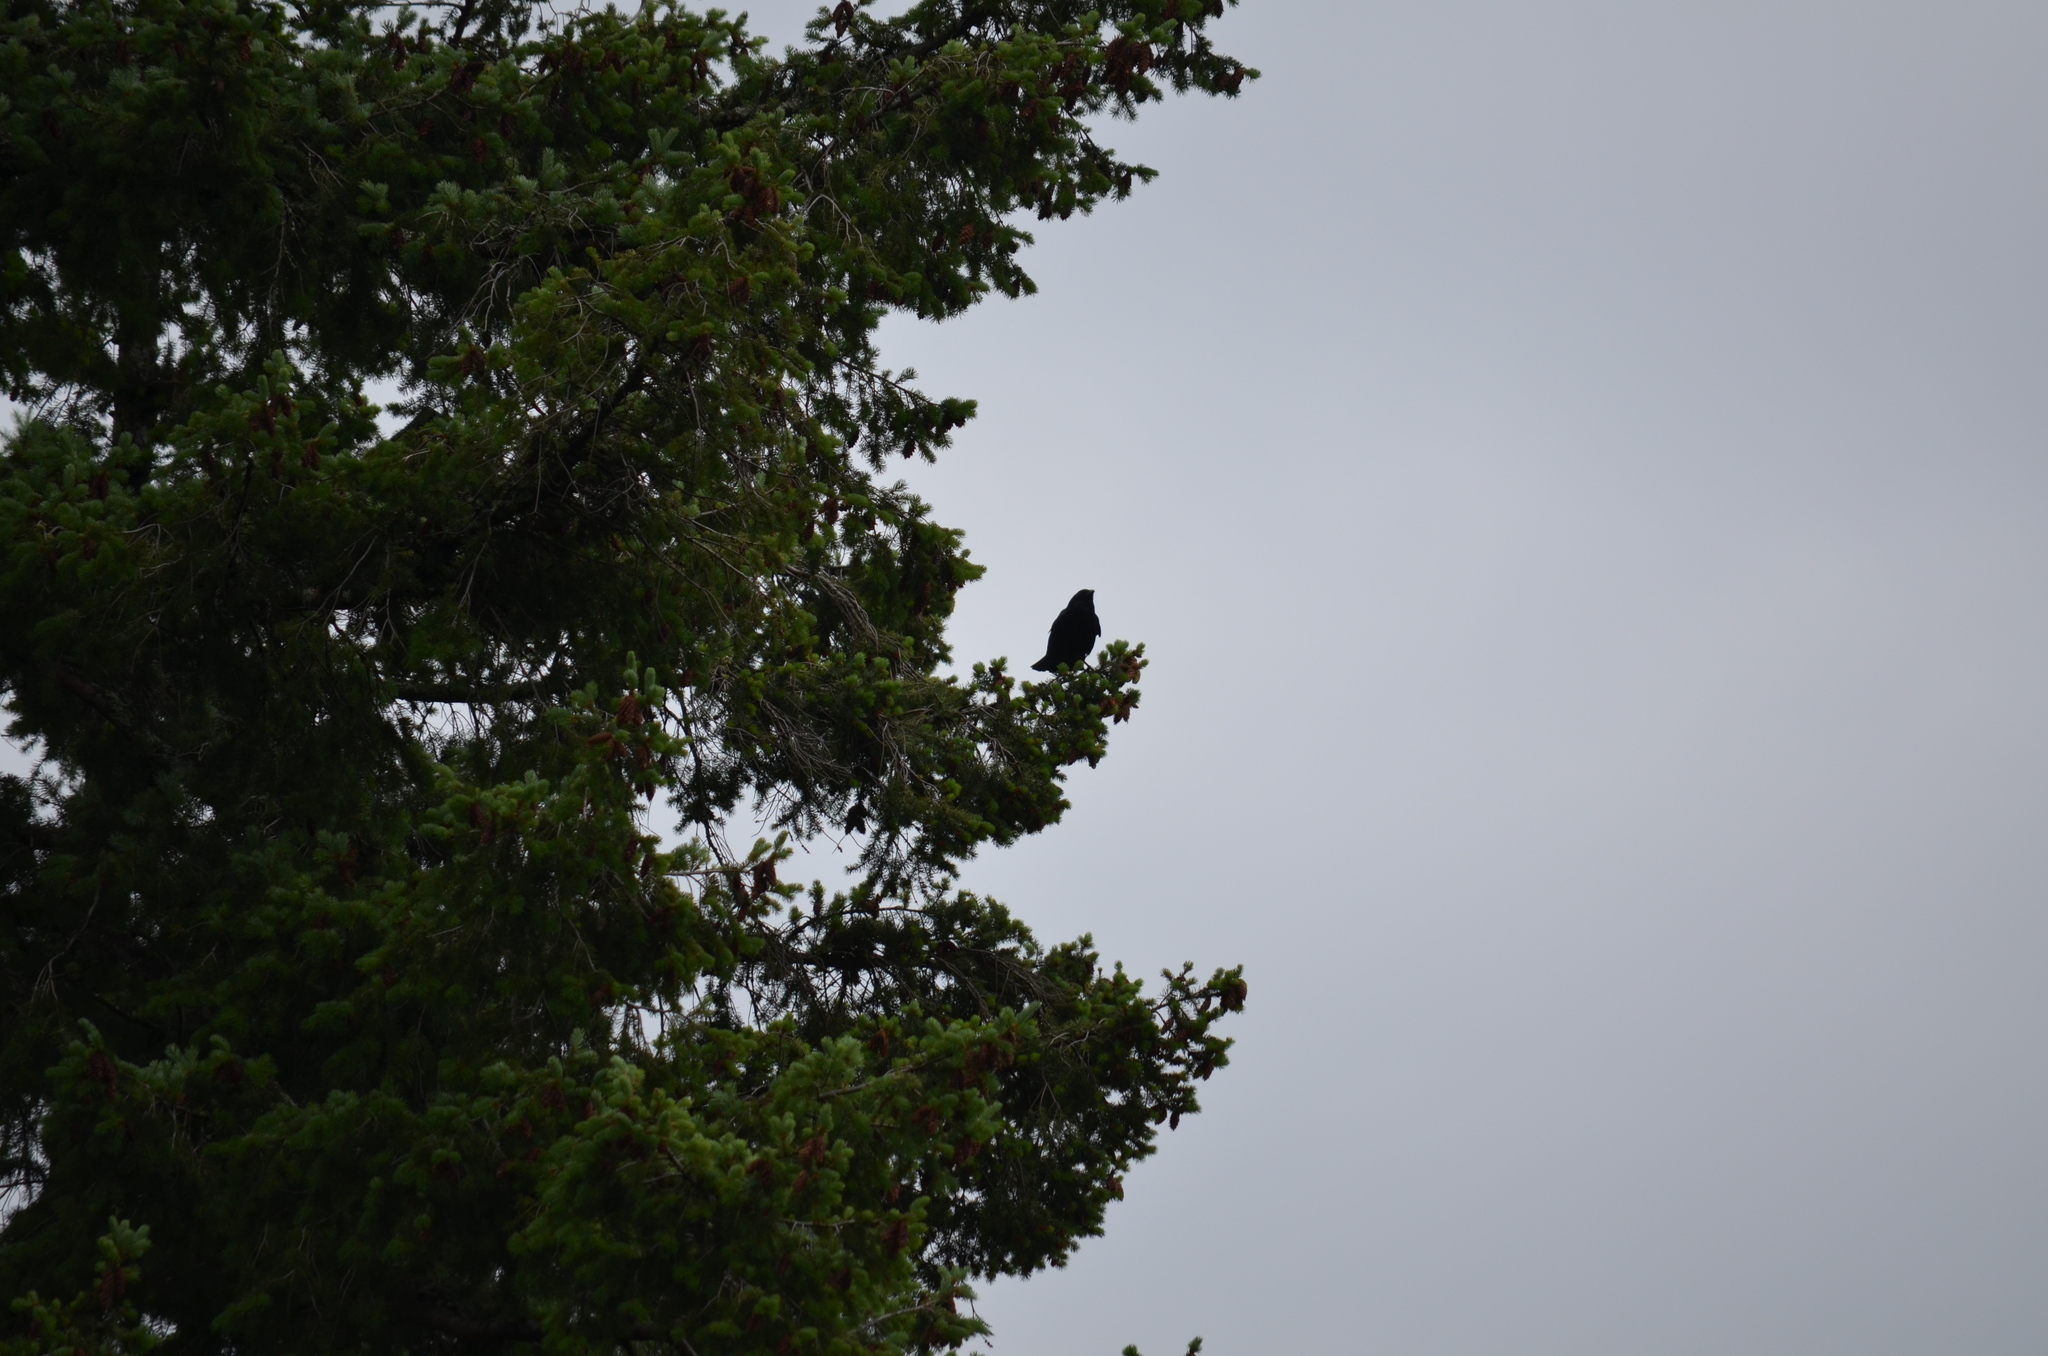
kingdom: Animalia
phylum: Chordata
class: Aves
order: Passeriformes
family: Corvidae
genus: Corvus
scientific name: Corvus brachyrhynchos
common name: American crow
